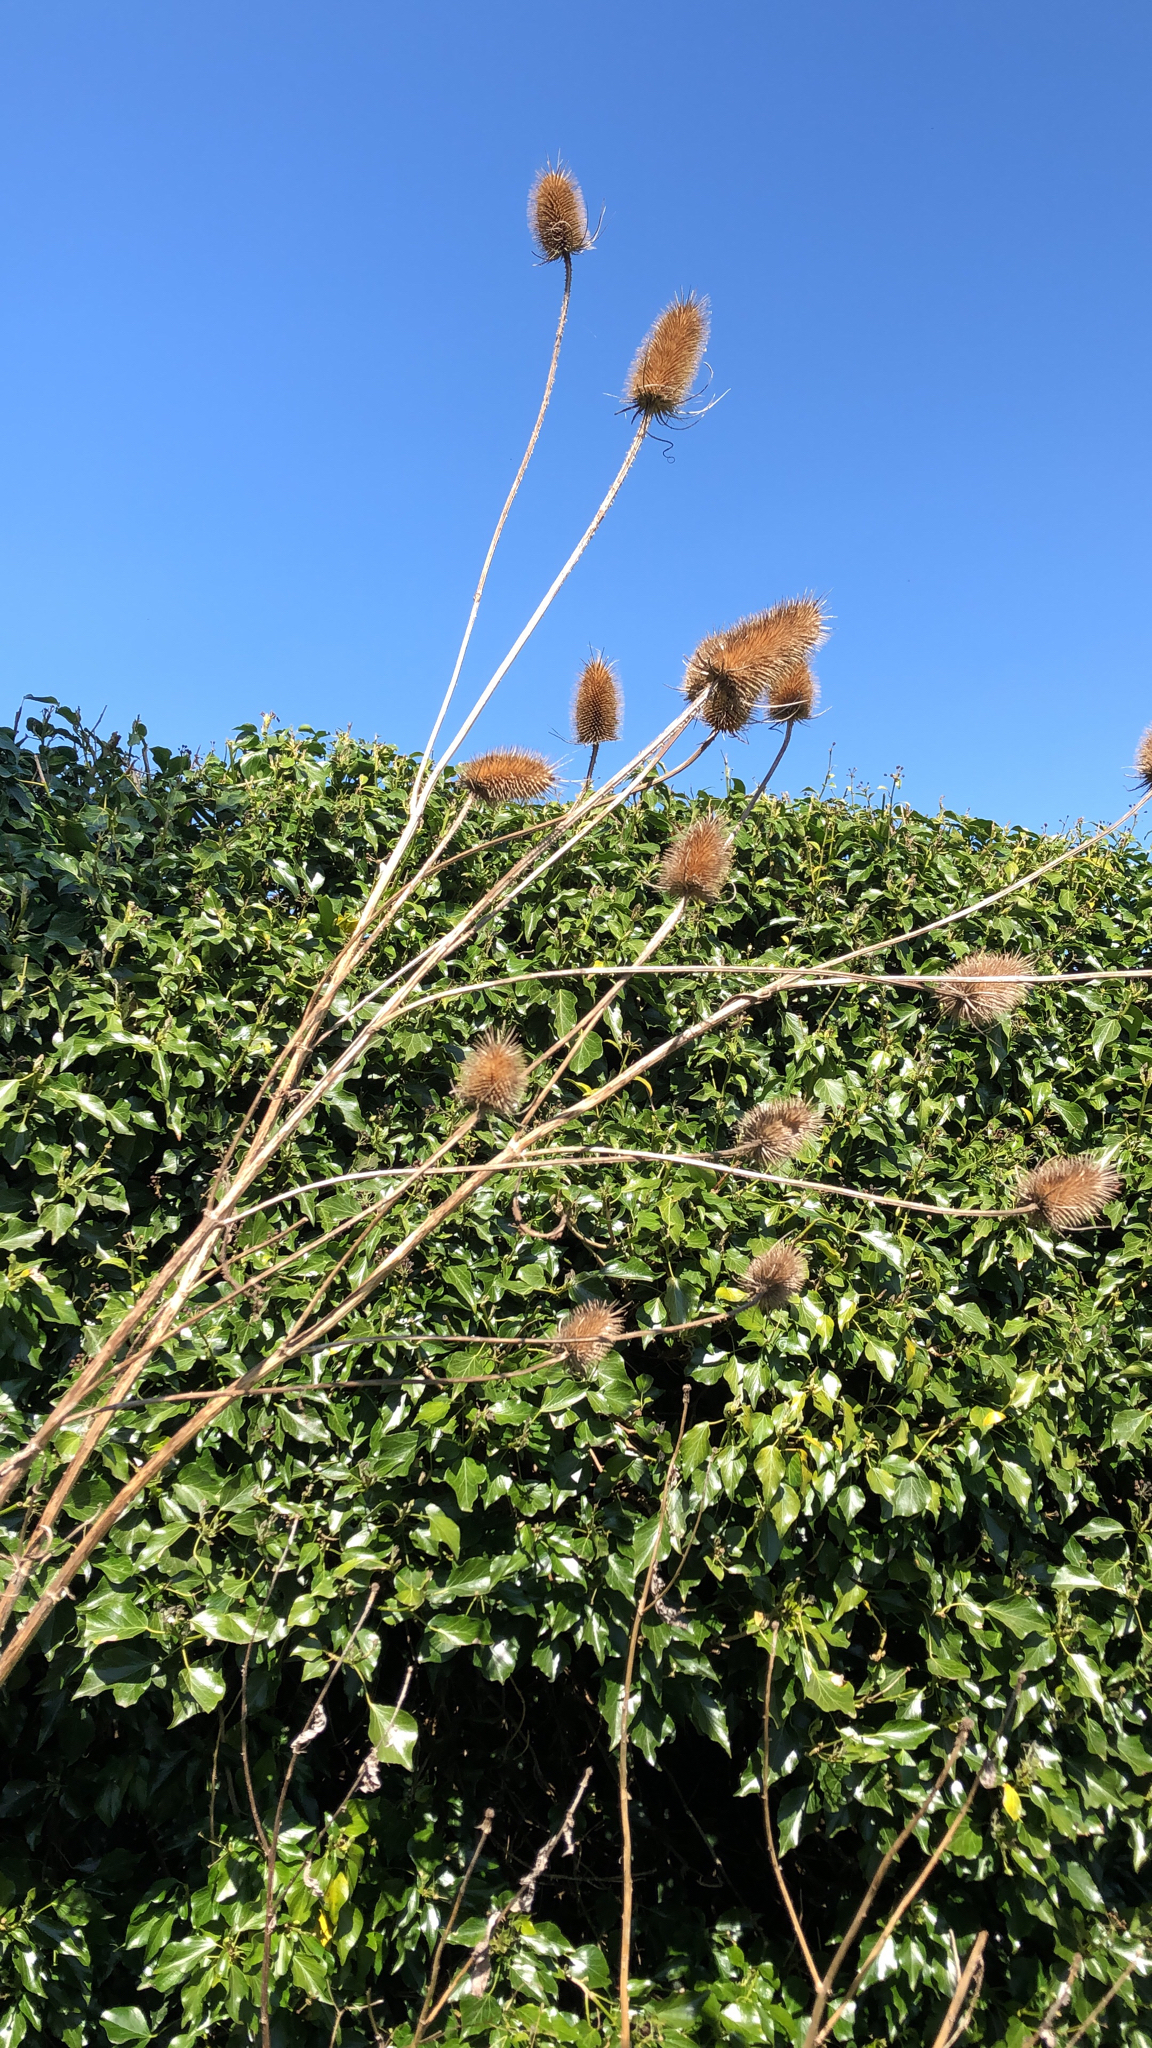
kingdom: Plantae
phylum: Tracheophyta
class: Magnoliopsida
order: Dipsacales
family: Caprifoliaceae
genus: Dipsacus
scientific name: Dipsacus fullonum
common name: Teasel
